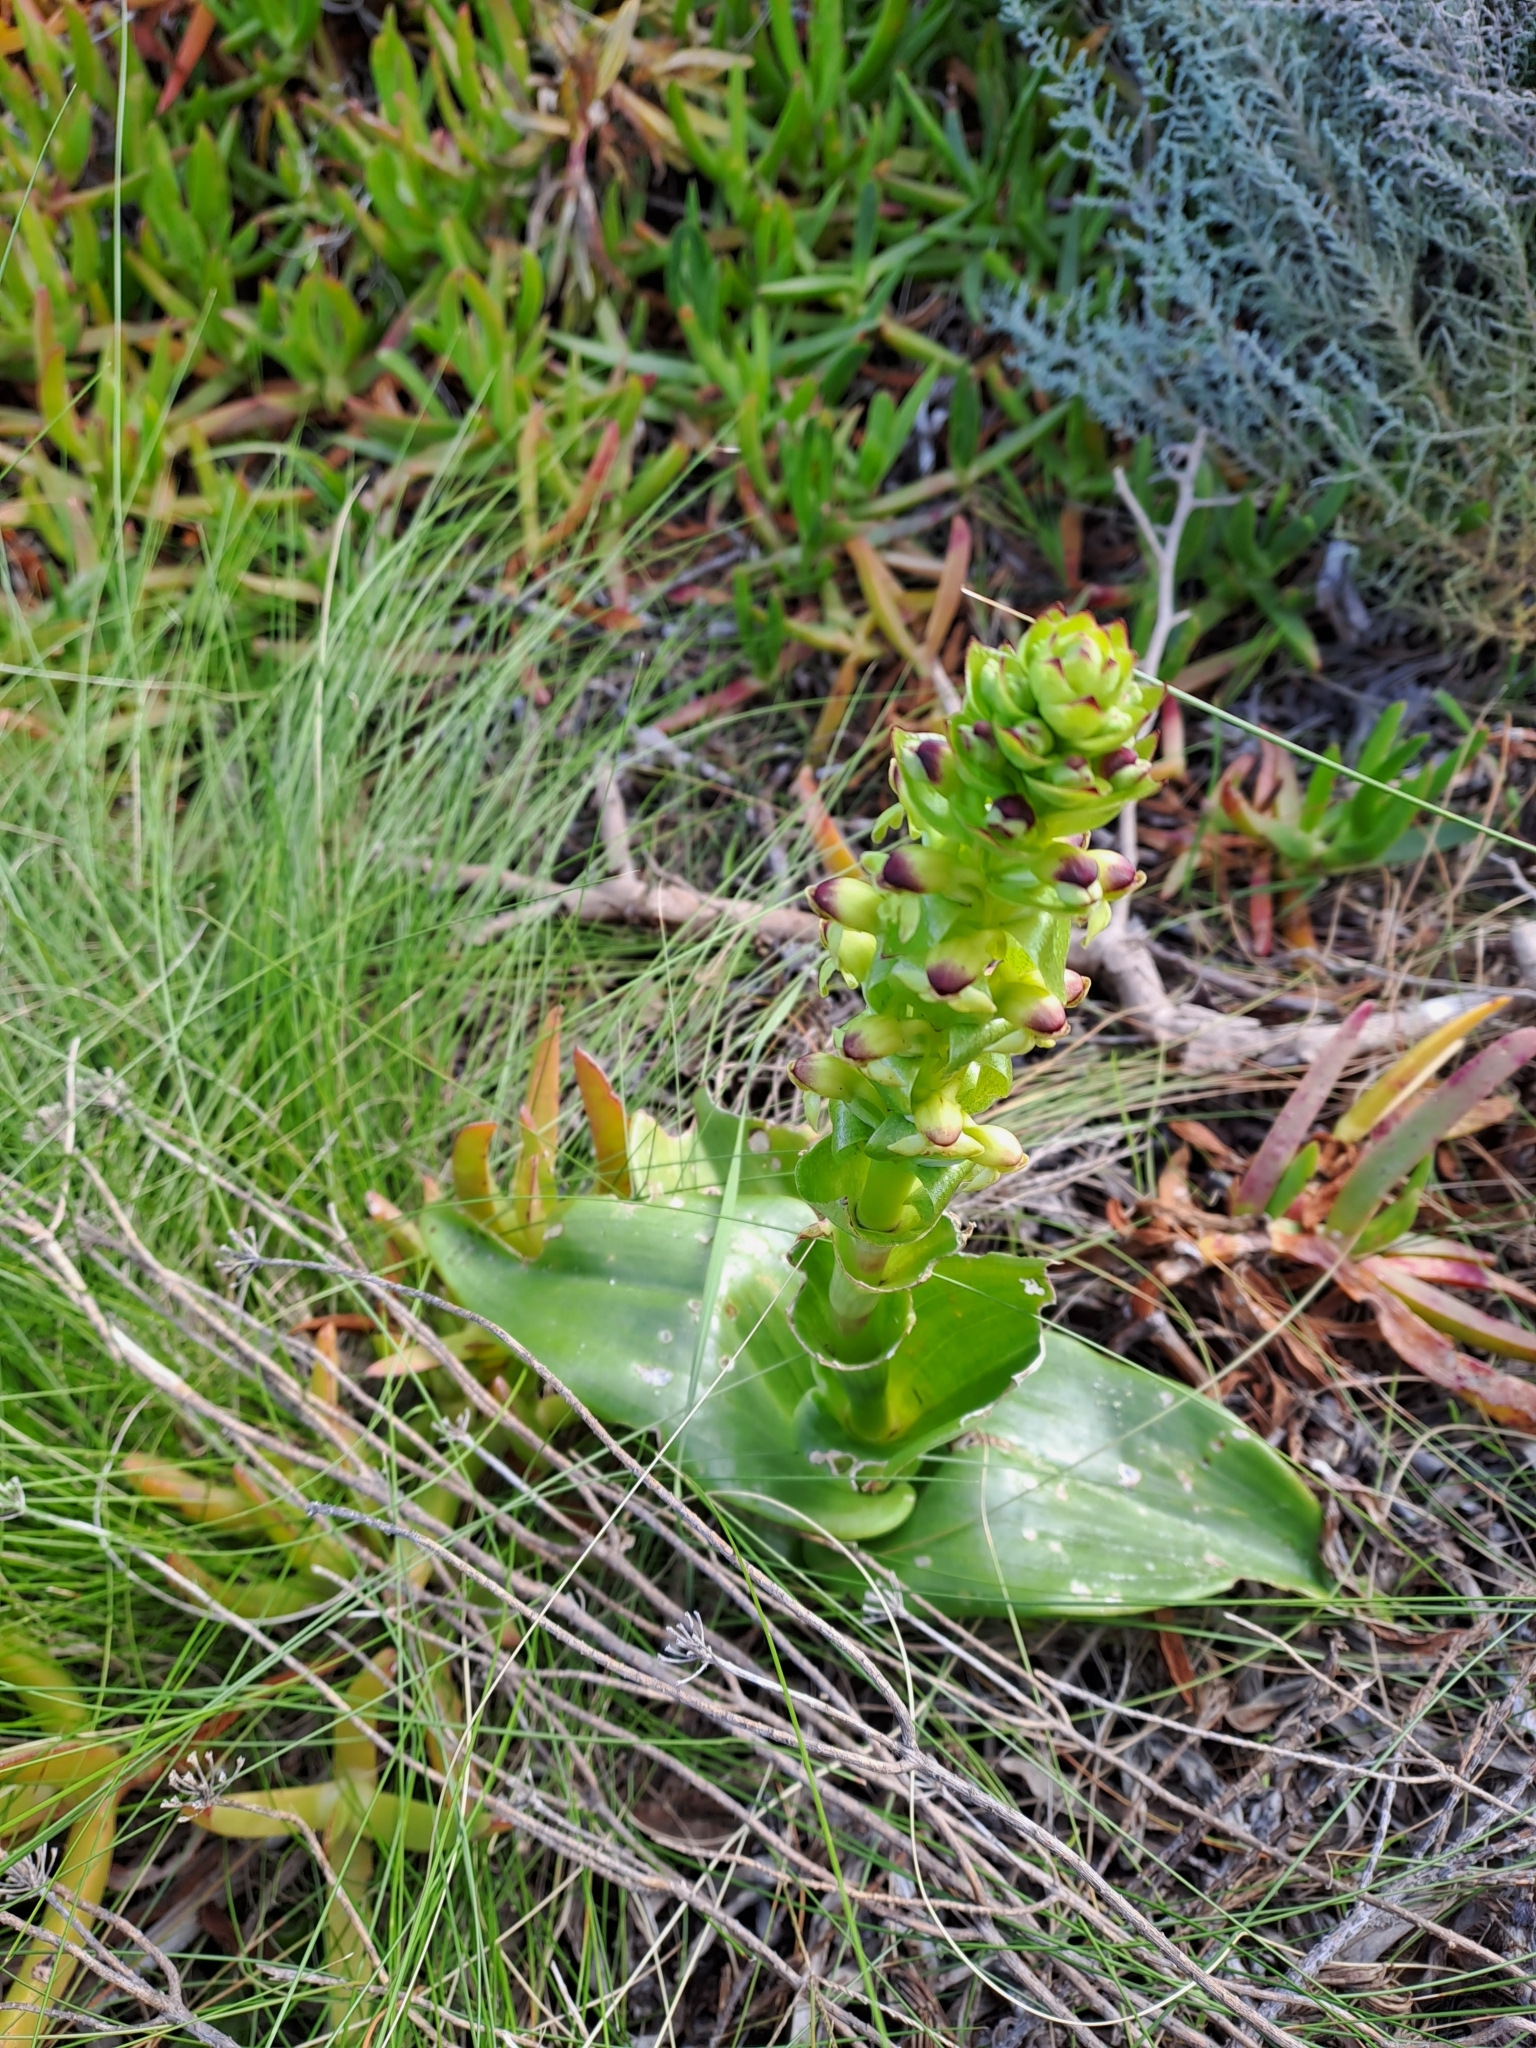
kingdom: Plantae
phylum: Tracheophyta
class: Liliopsida
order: Asparagales
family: Orchidaceae
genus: Satyrium
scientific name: Satyrium odorum
